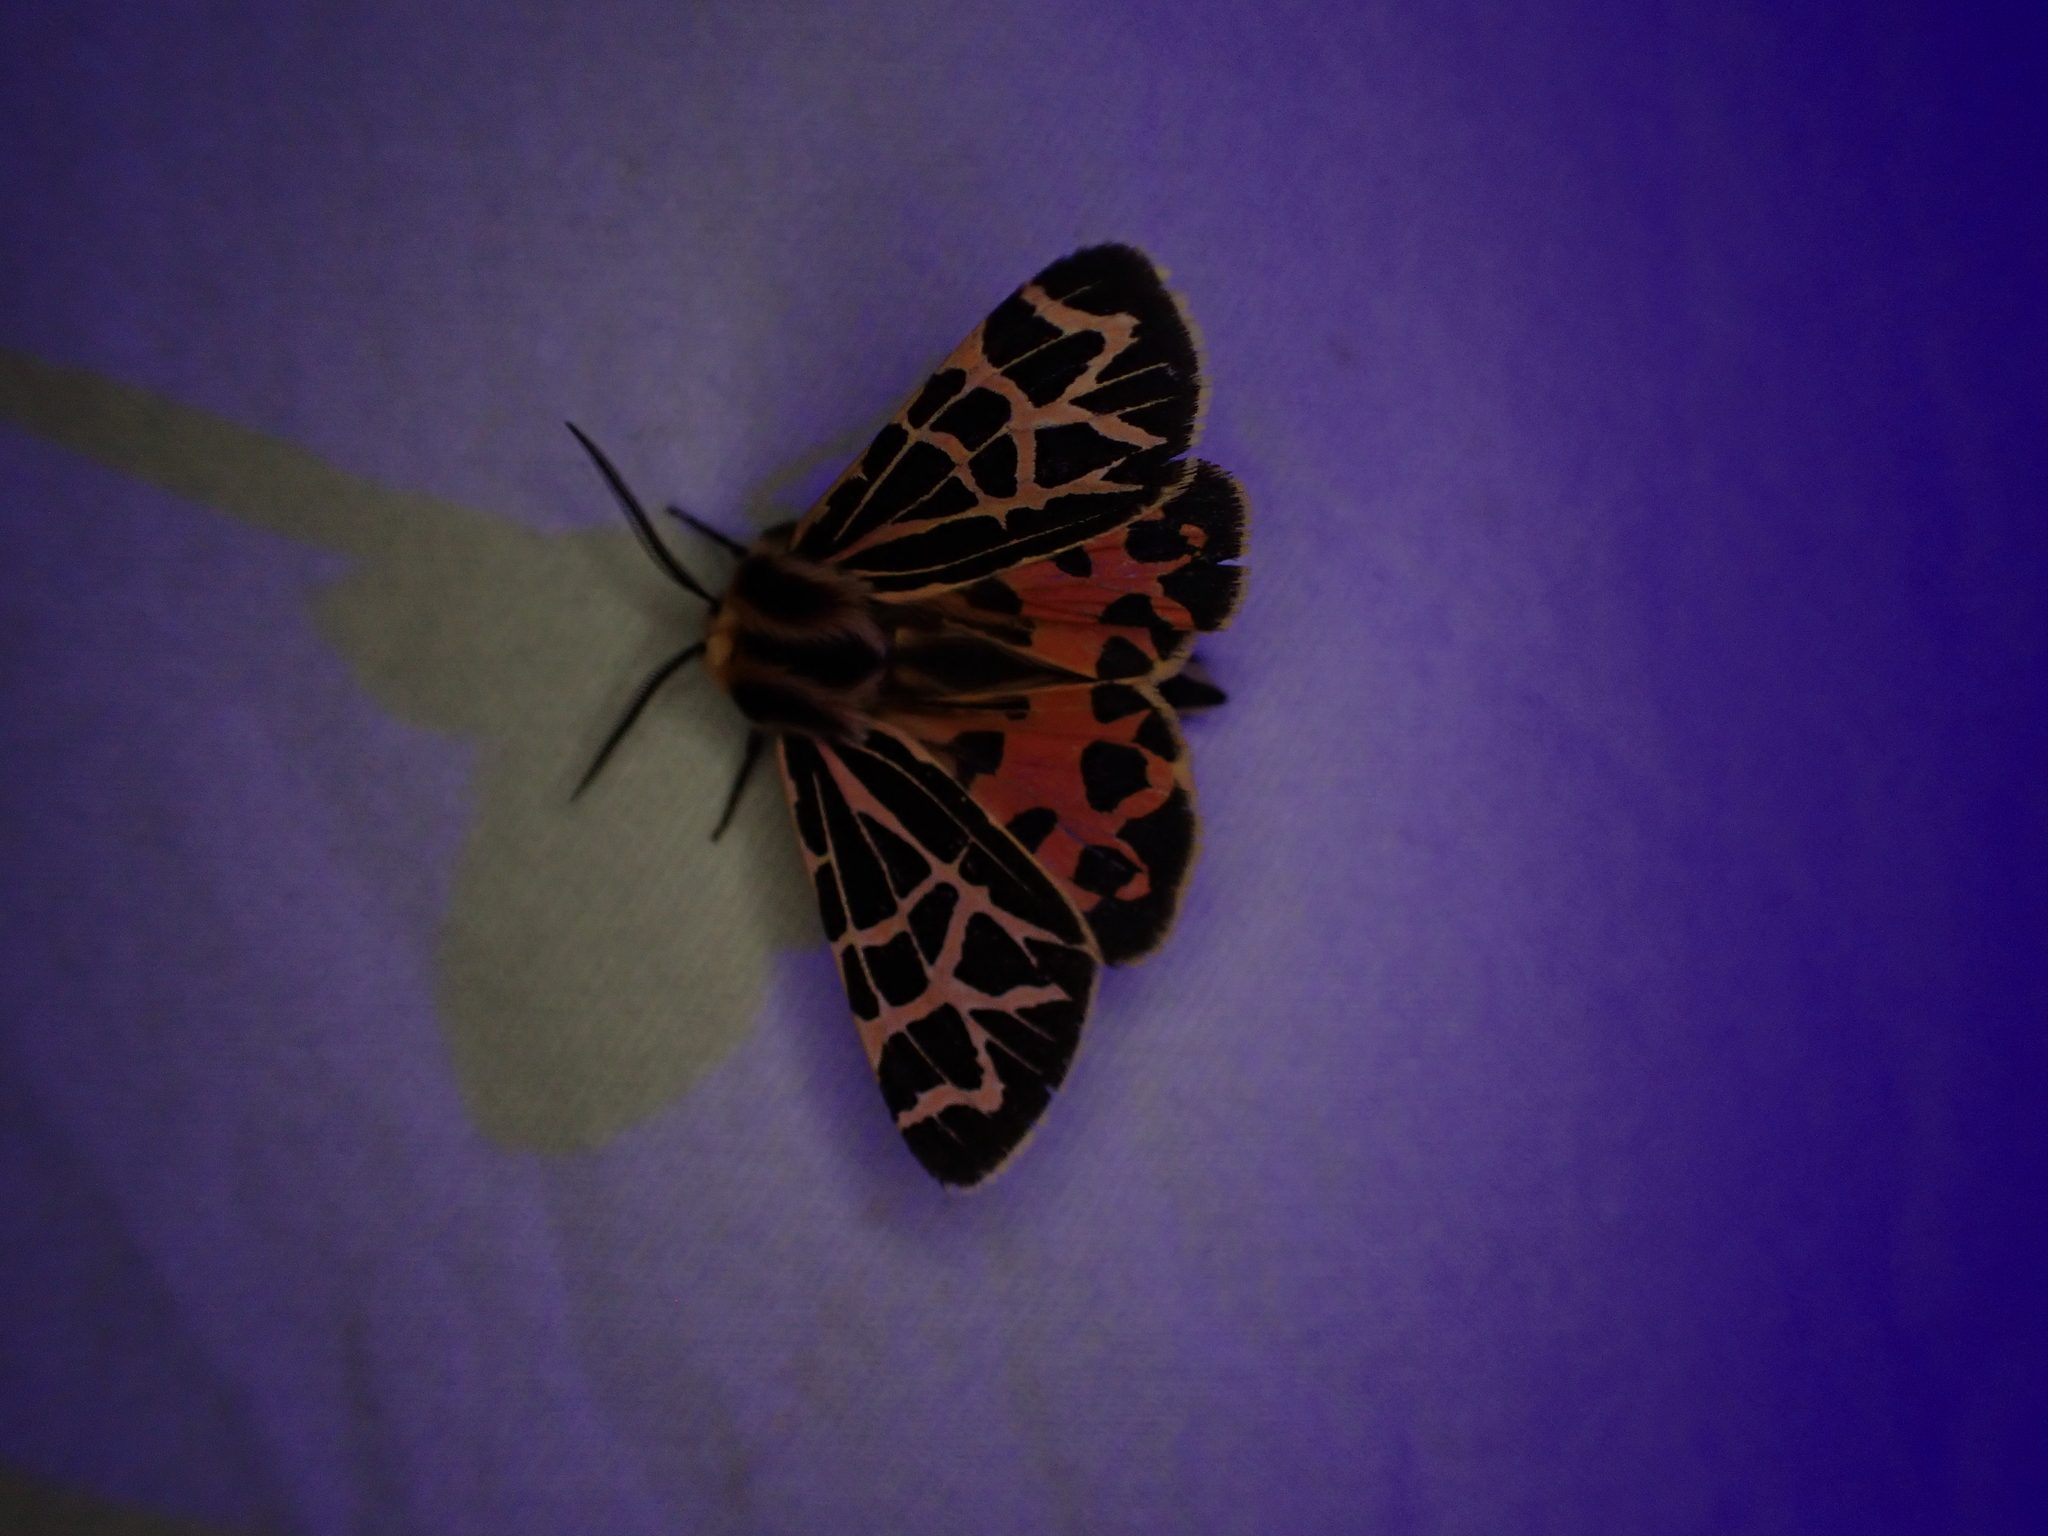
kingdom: Animalia
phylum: Arthropoda
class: Insecta
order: Lepidoptera
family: Erebidae
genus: Apantesis
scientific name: Apantesis
